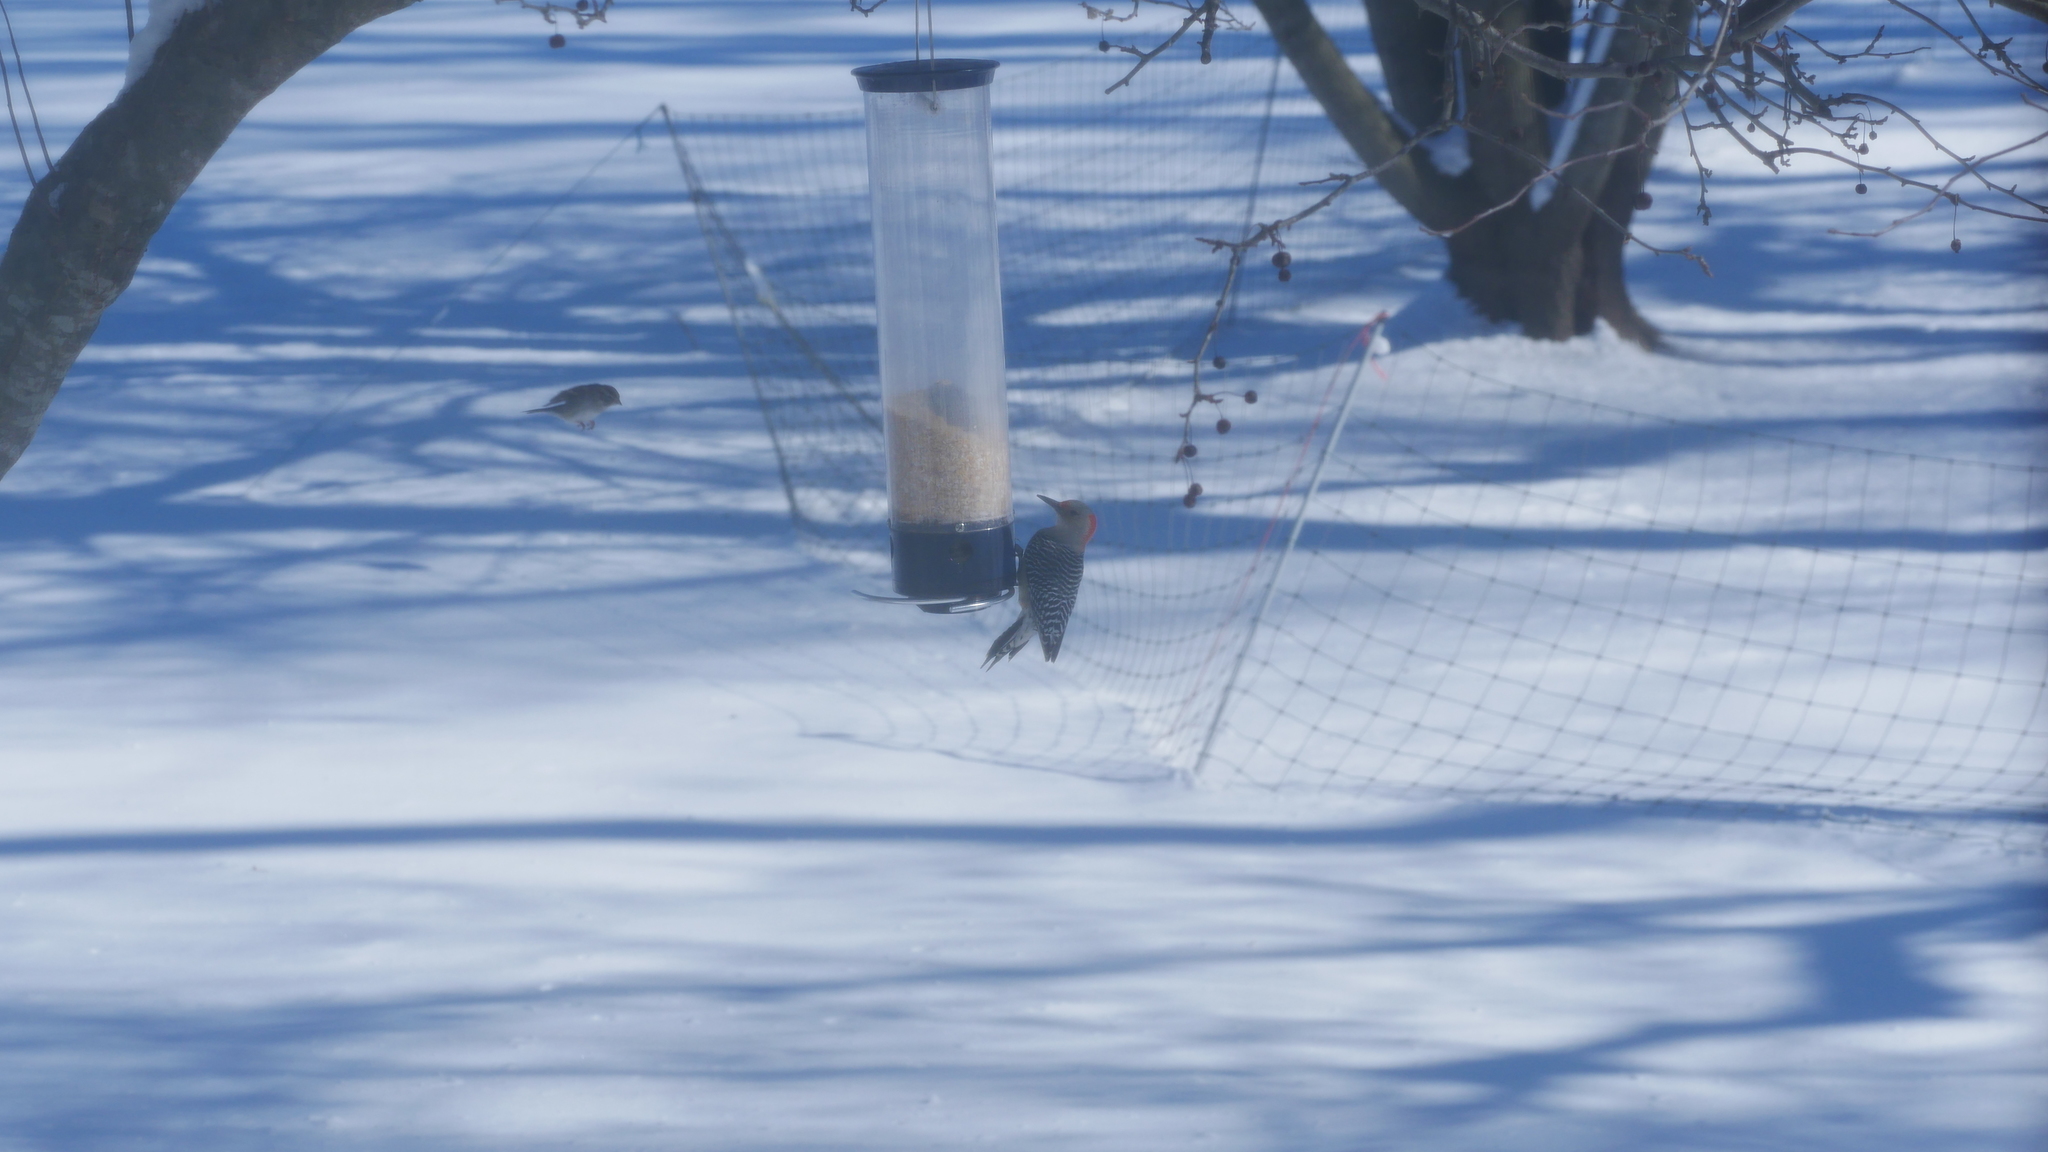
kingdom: Animalia
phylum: Chordata
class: Aves
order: Piciformes
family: Picidae
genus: Melanerpes
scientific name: Melanerpes carolinus
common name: Red-bellied woodpecker
